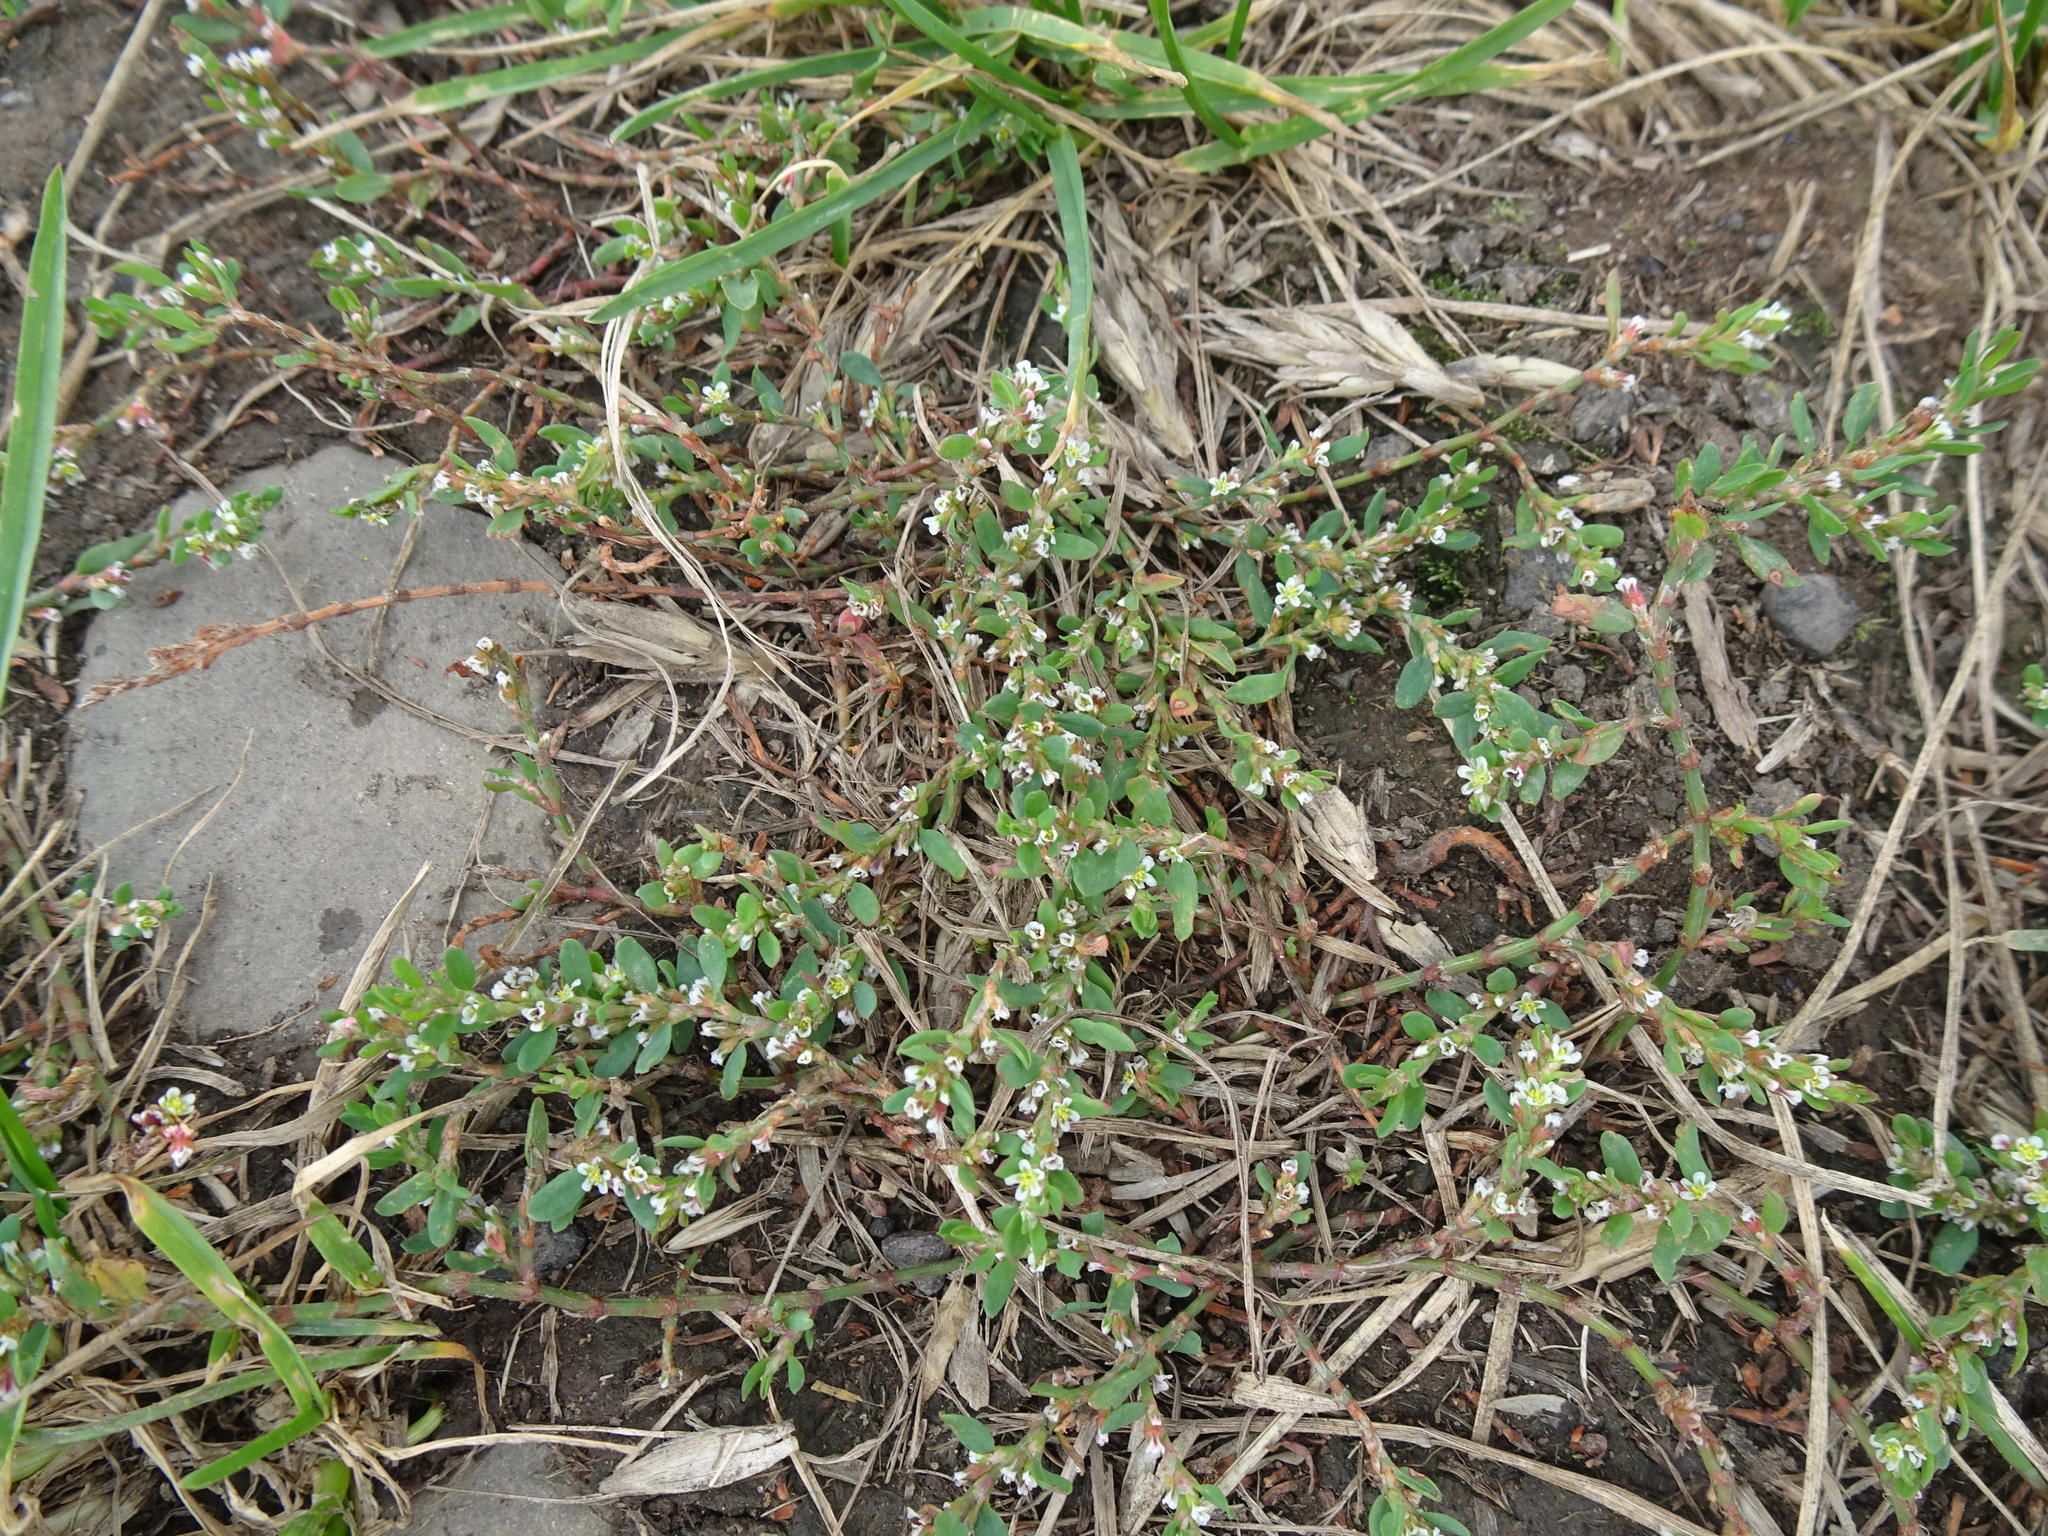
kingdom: Plantae
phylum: Tracheophyta
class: Magnoliopsida
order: Caryophyllales
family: Polygonaceae
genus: Polygonum
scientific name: Polygonum aviculare
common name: Prostrate knotweed
